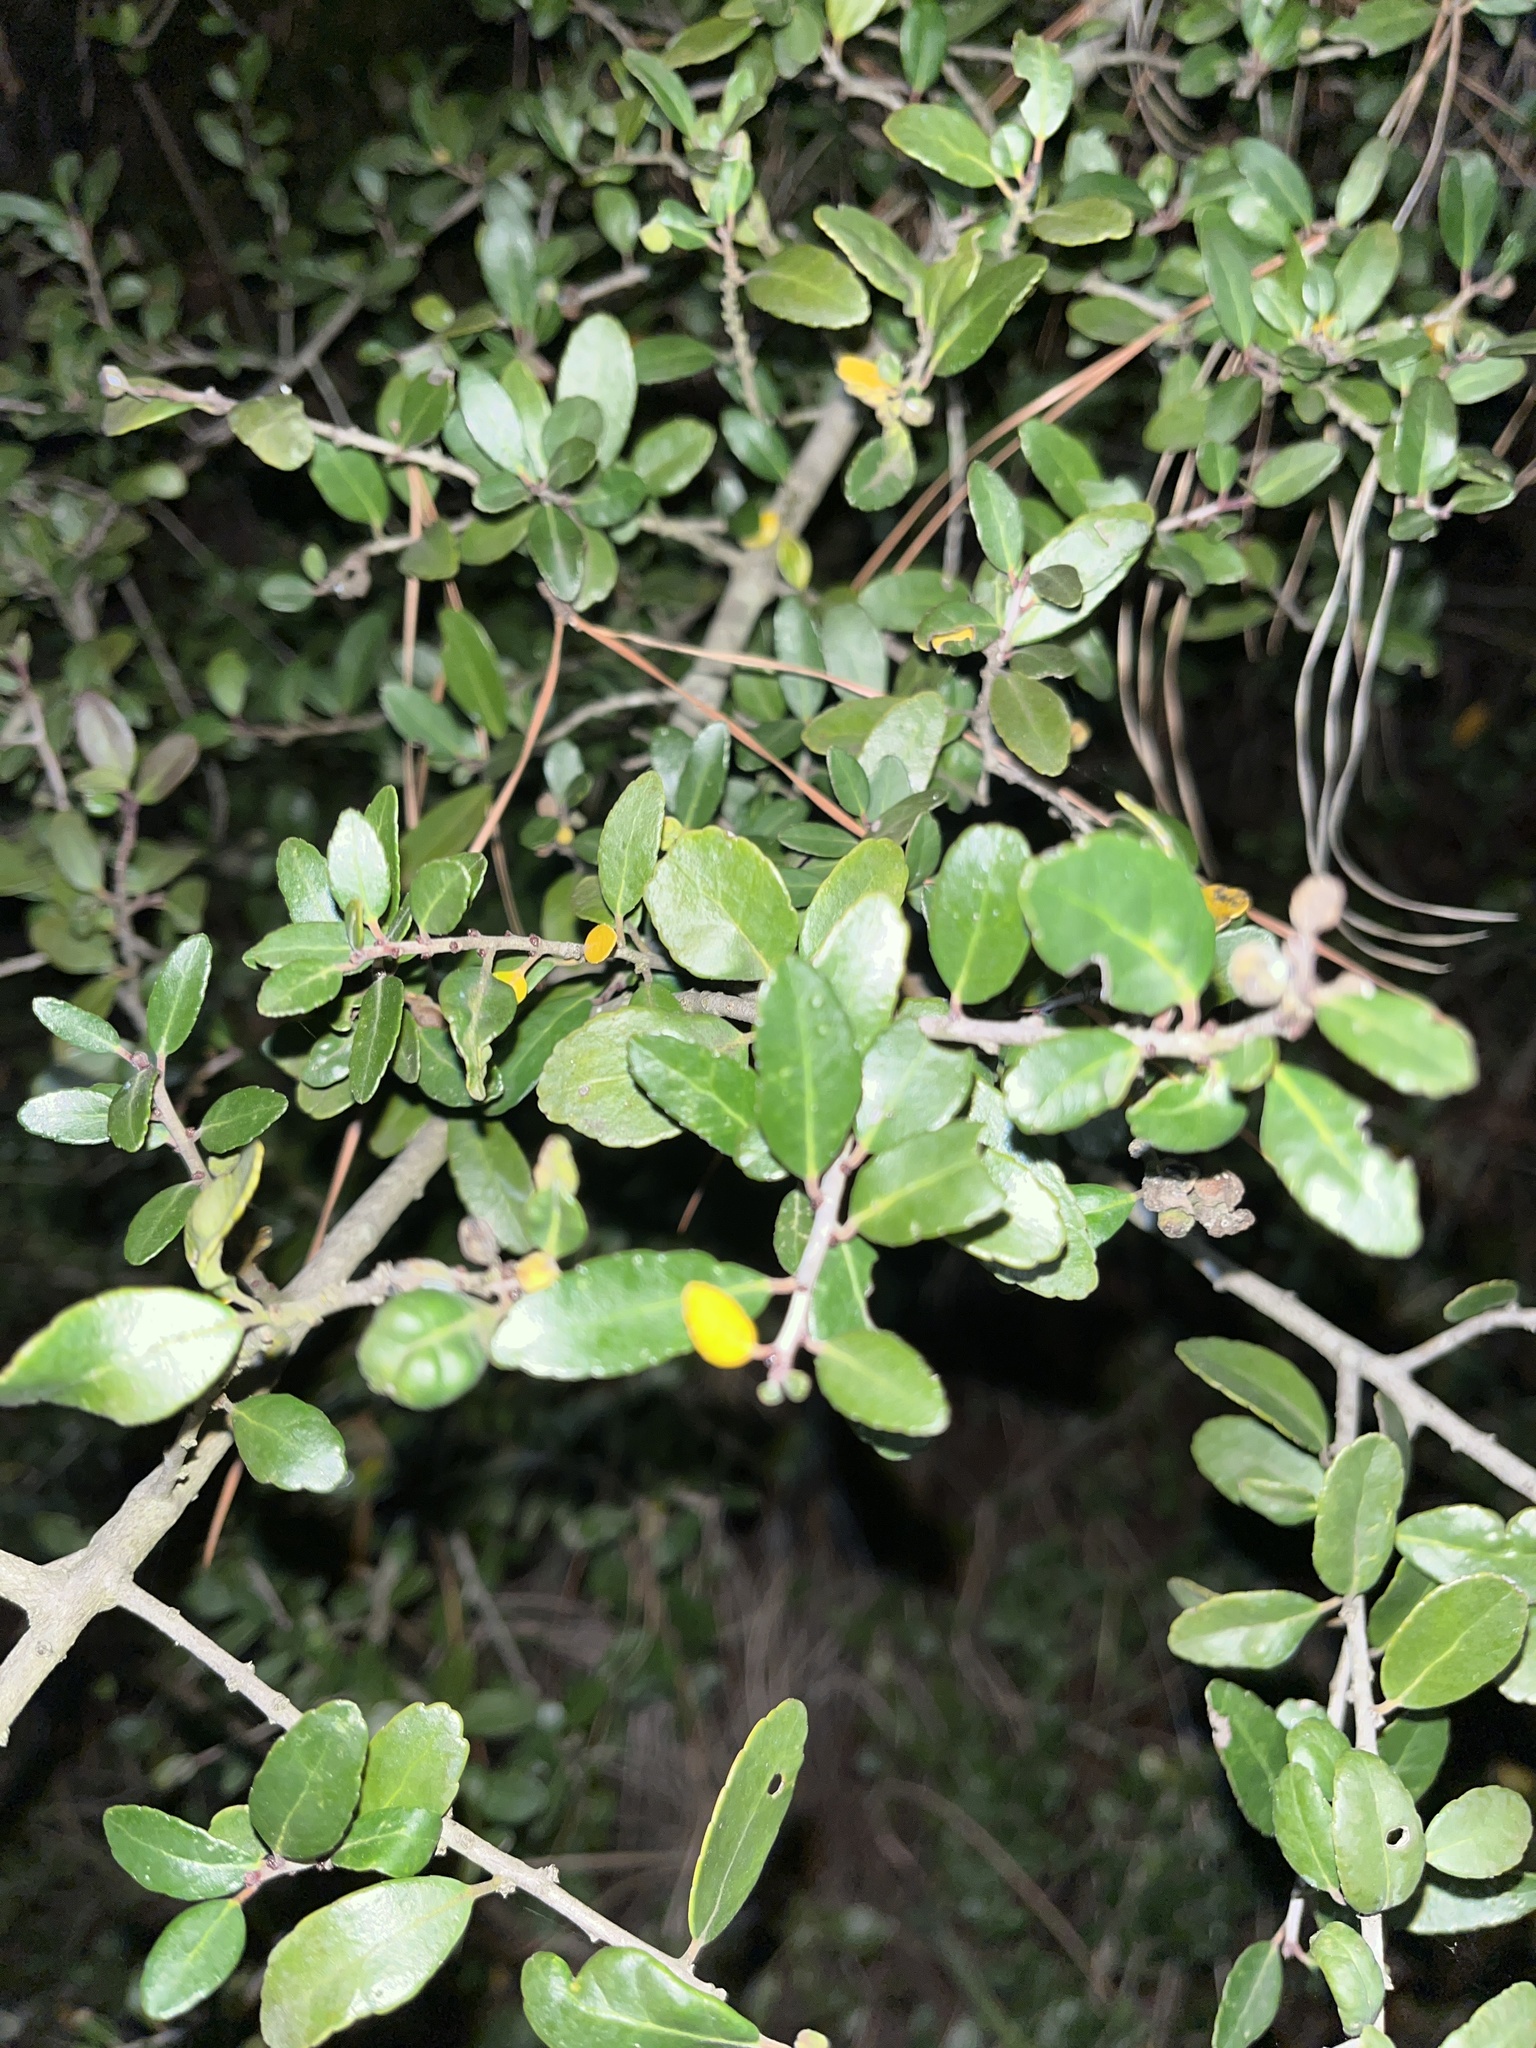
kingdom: Plantae
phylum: Tracheophyta
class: Magnoliopsida
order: Aquifoliales
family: Aquifoliaceae
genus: Ilex
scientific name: Ilex vomitoria
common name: Yaupon holly
